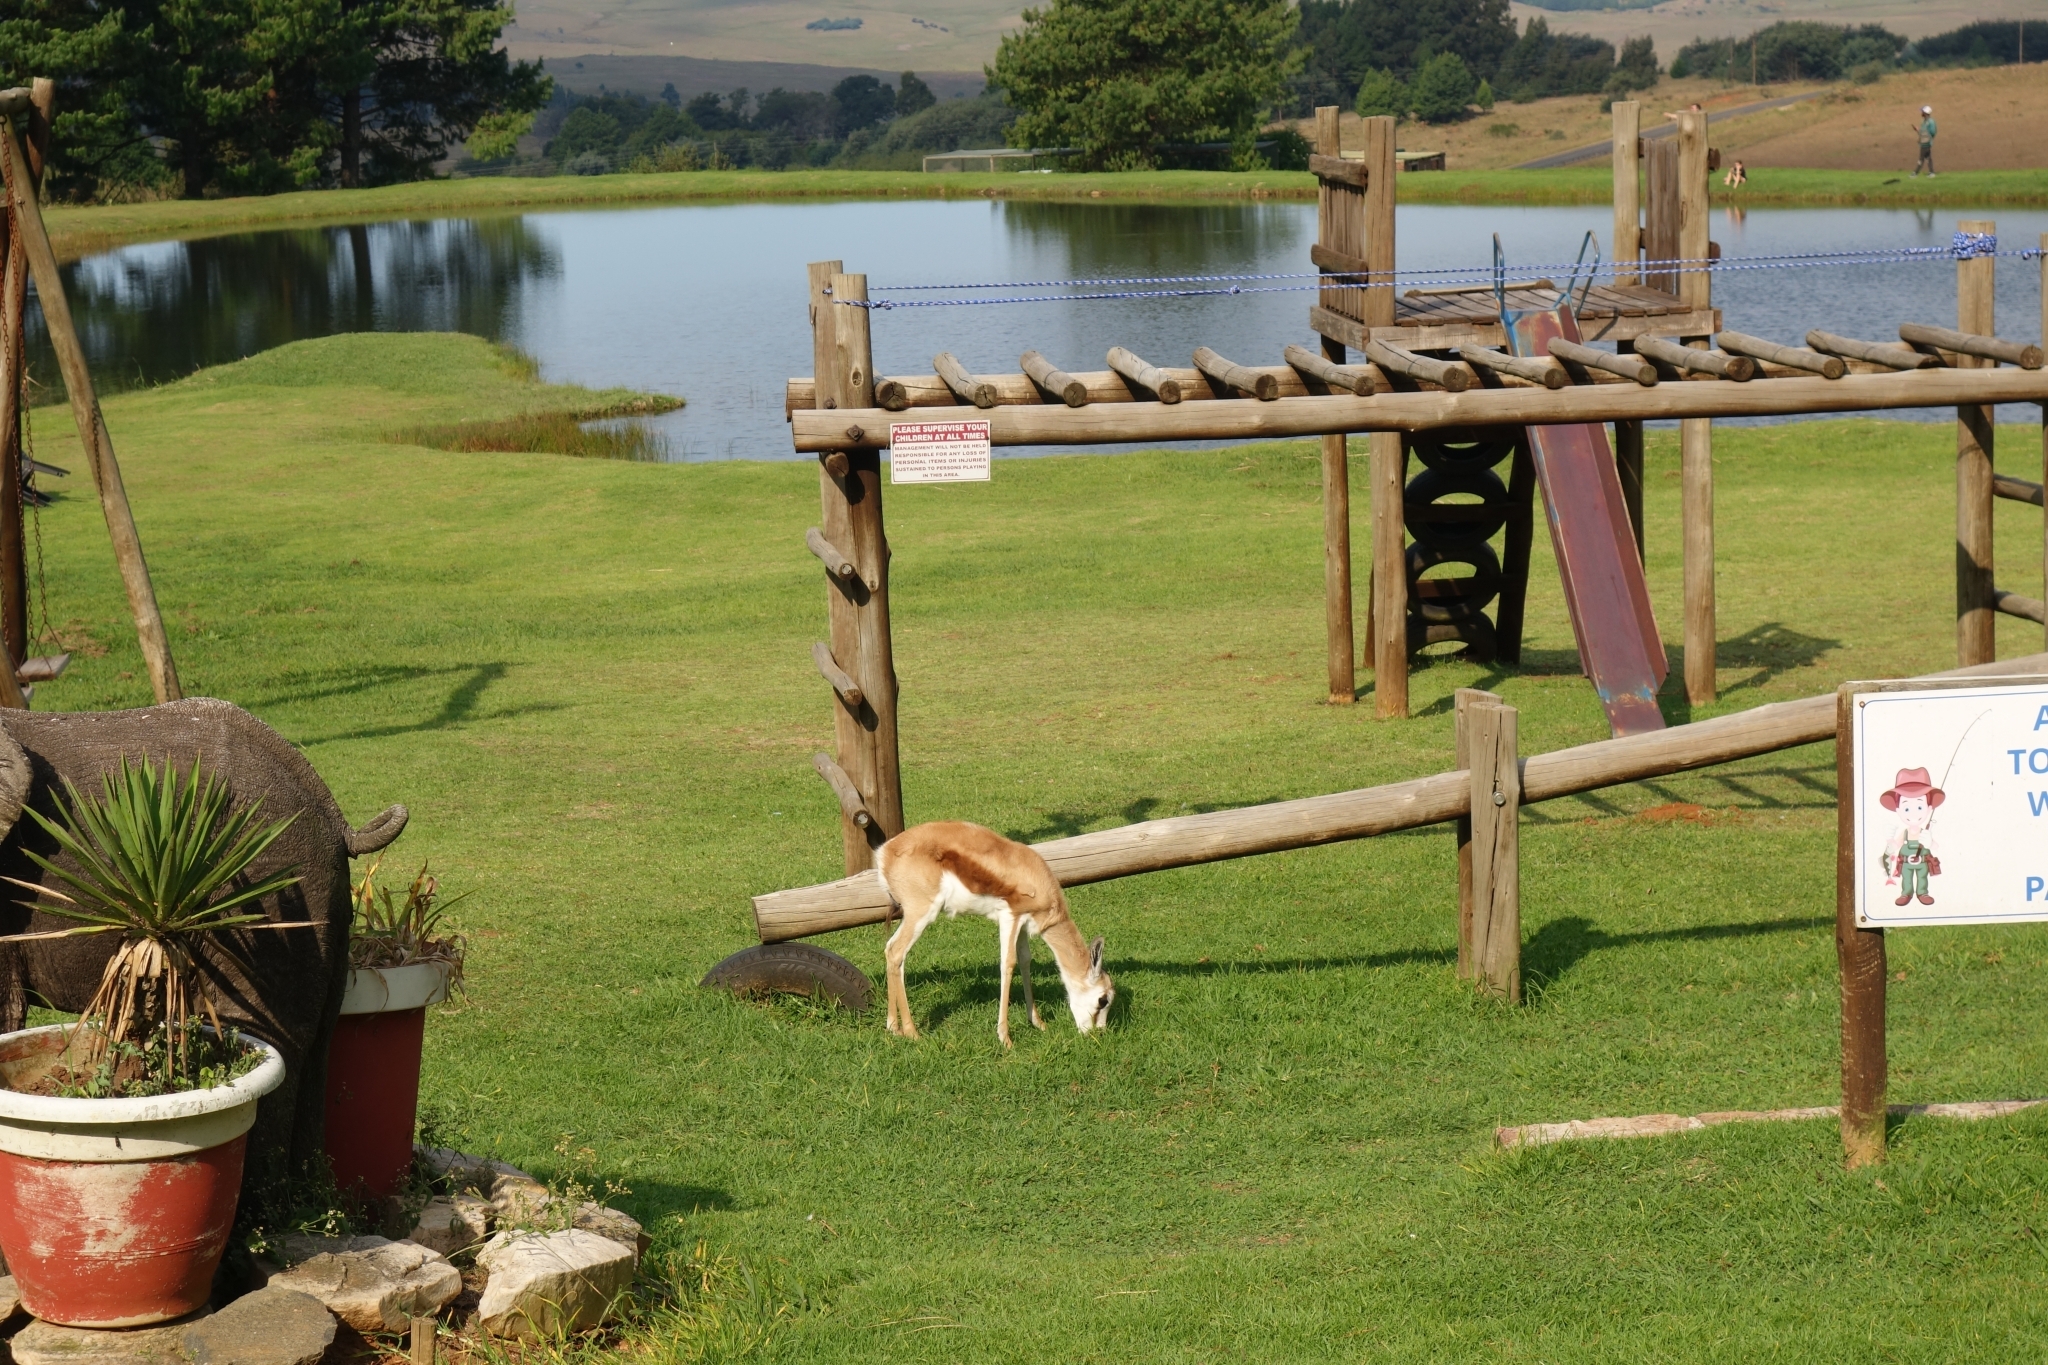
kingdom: Animalia
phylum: Chordata
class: Mammalia
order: Artiodactyla
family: Bovidae
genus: Antidorcas
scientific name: Antidorcas marsupialis
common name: Springbok
